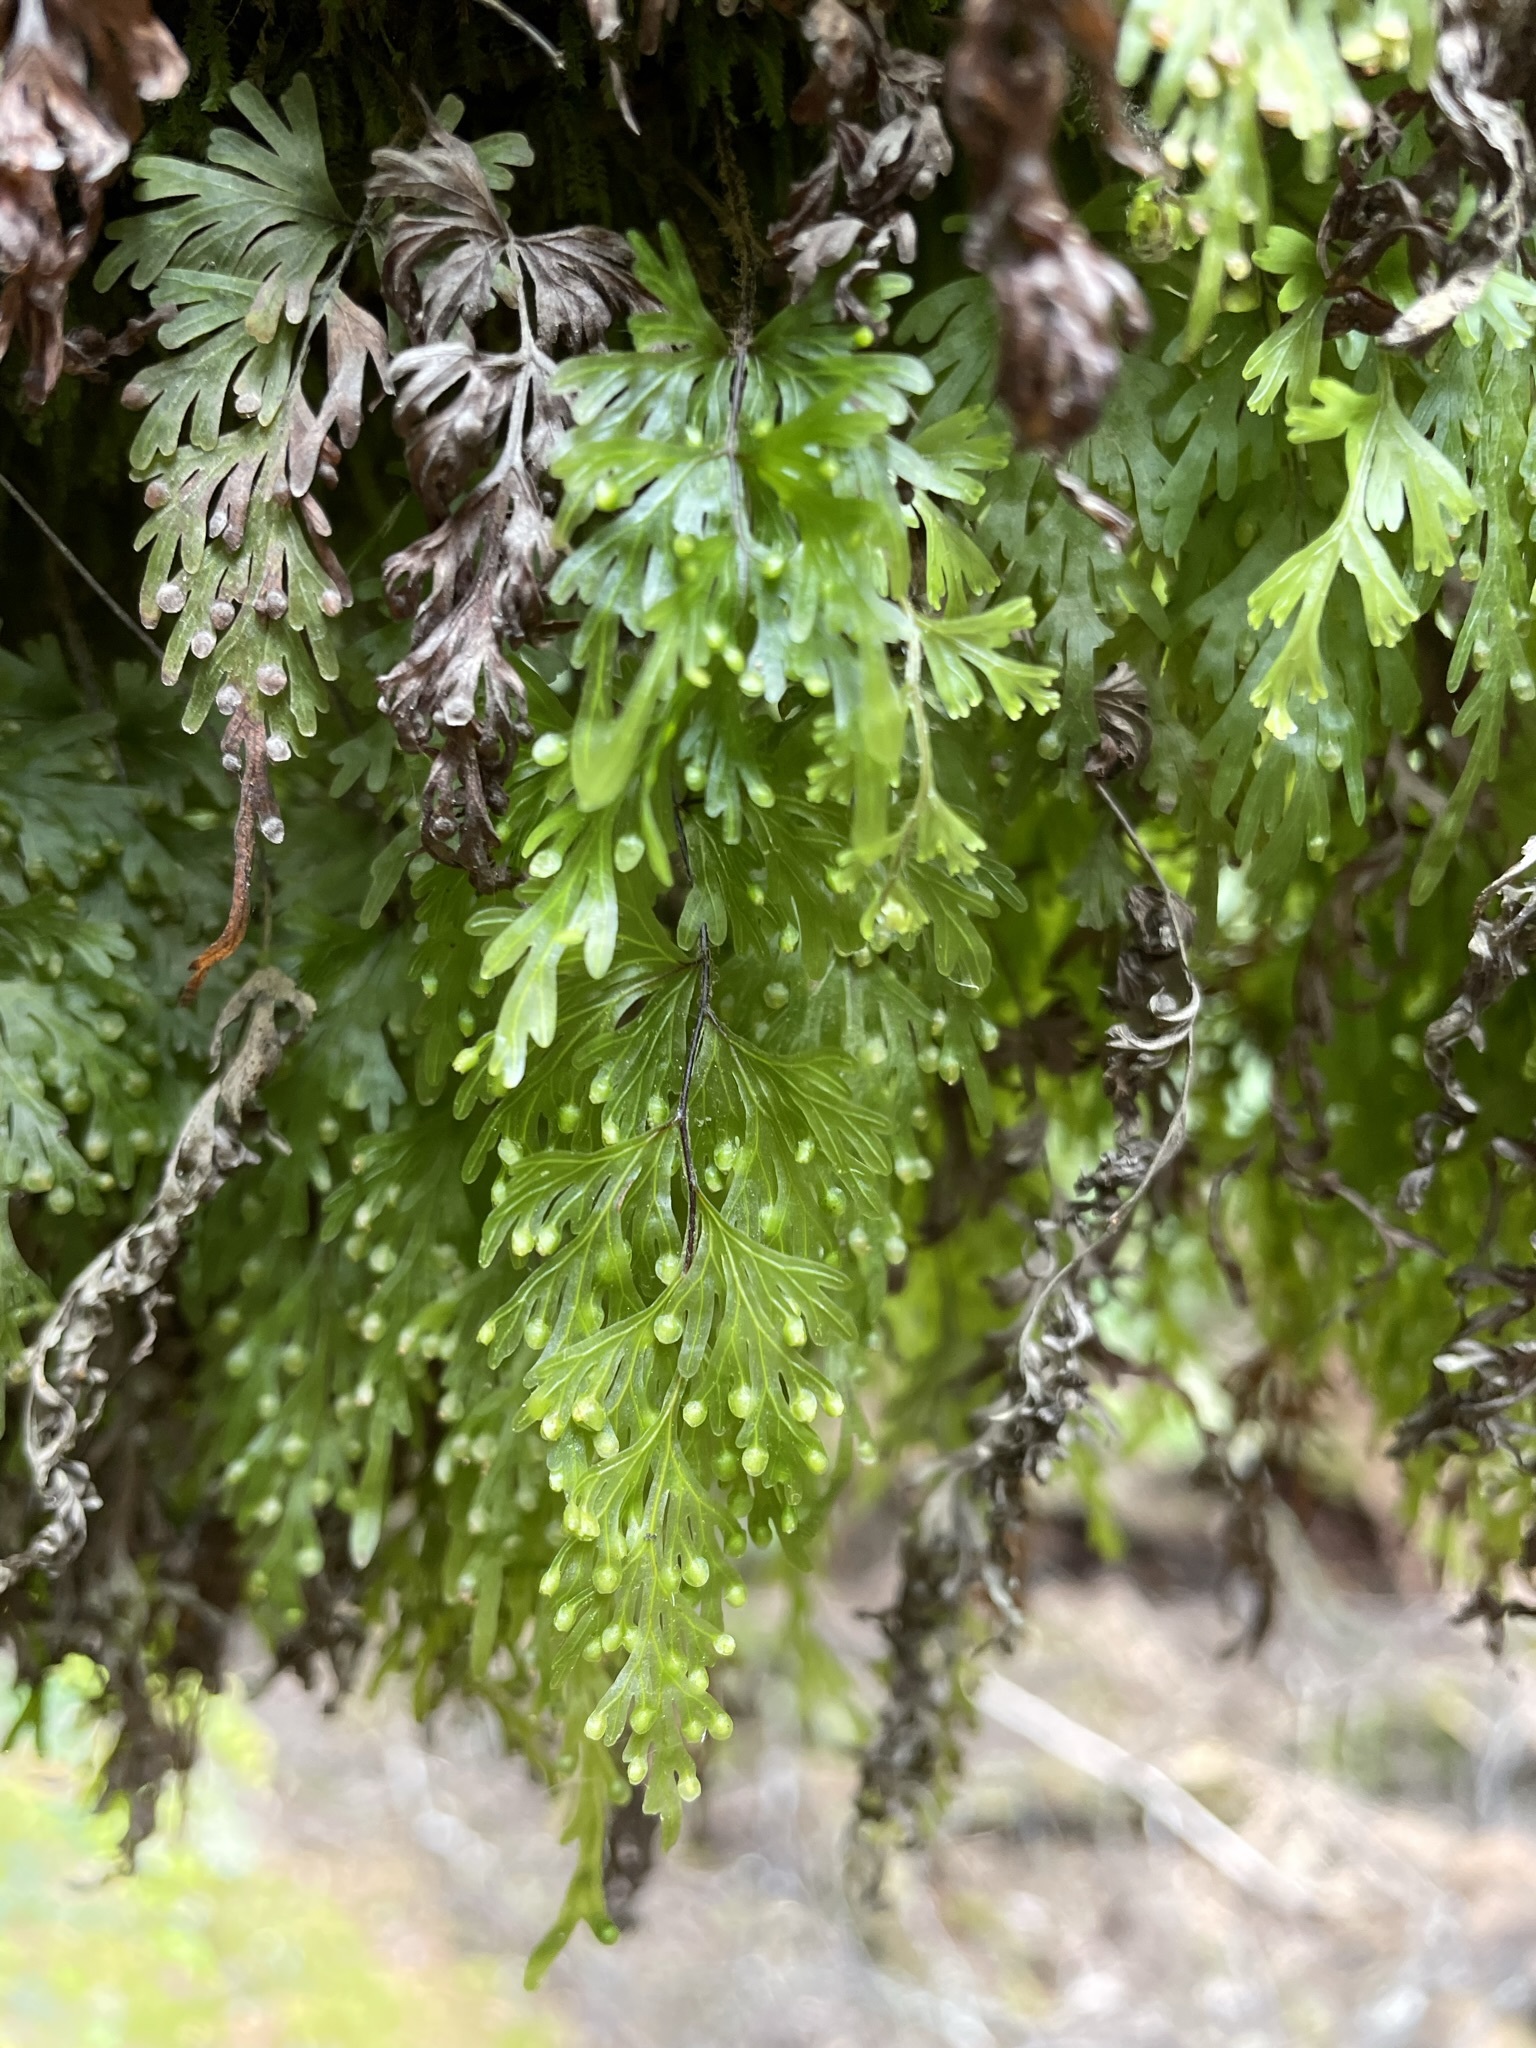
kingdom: Plantae
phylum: Tracheophyta
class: Polypodiopsida
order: Hymenophyllales
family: Hymenophyllaceae
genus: Hymenophyllum
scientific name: Hymenophyllum flabellatum
